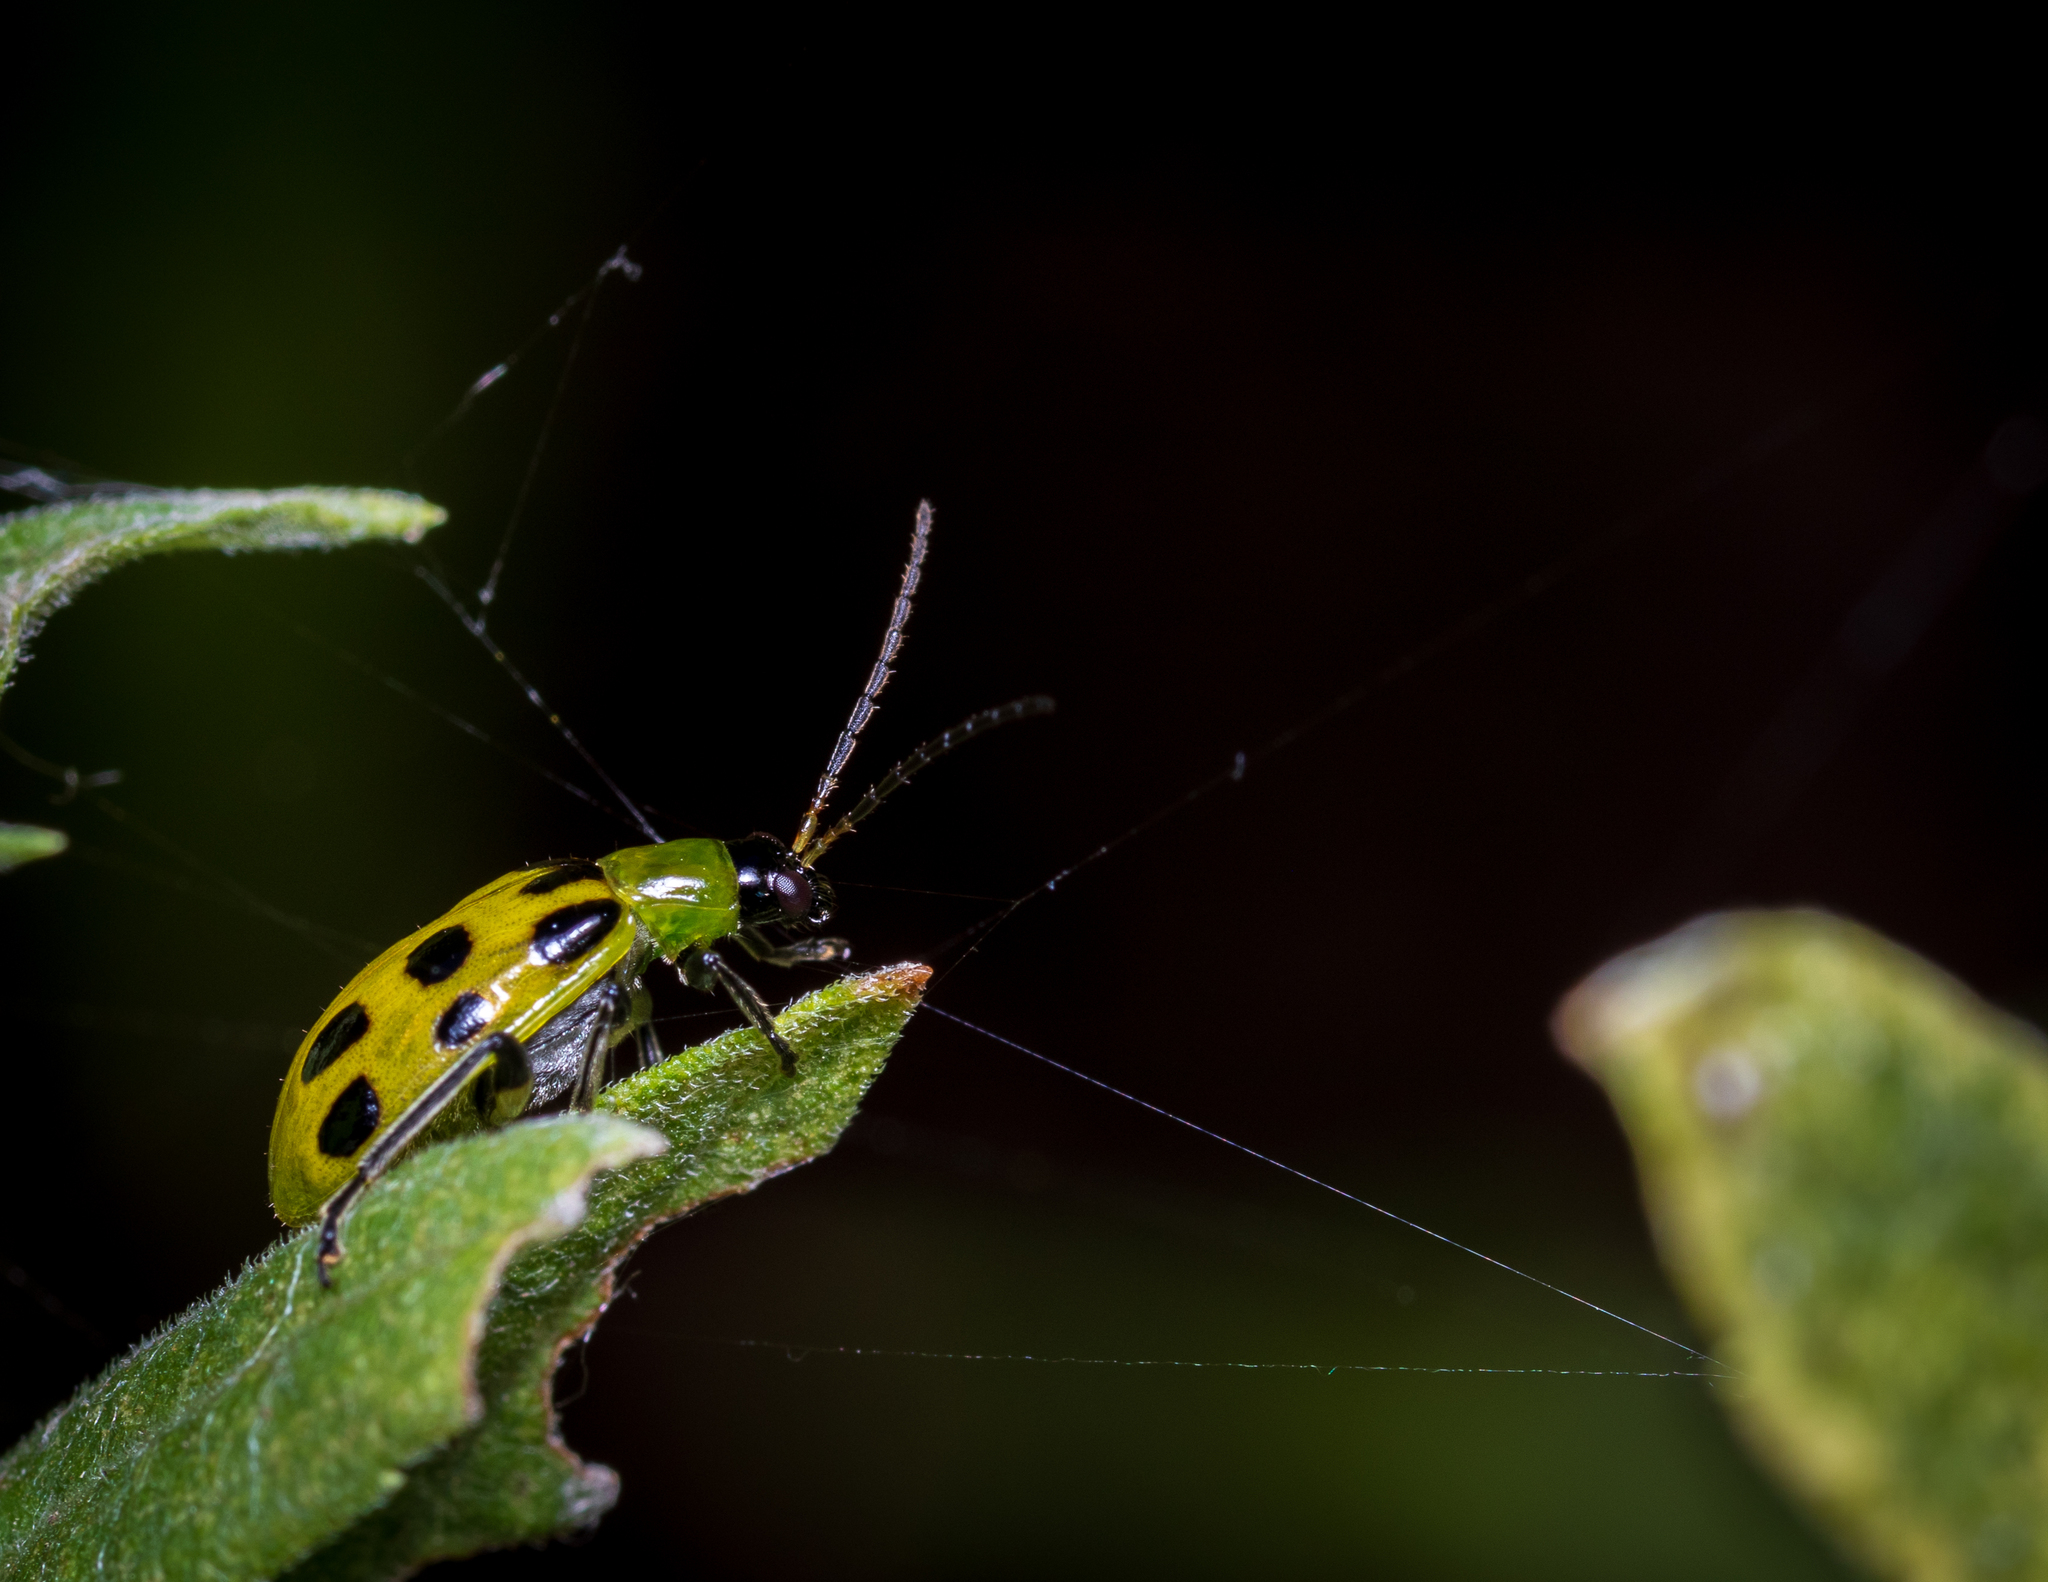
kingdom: Animalia
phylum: Arthropoda
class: Insecta
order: Coleoptera
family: Chrysomelidae
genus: Diabrotica
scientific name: Diabrotica undecimpunctata
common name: Spotted cucumber beetle
